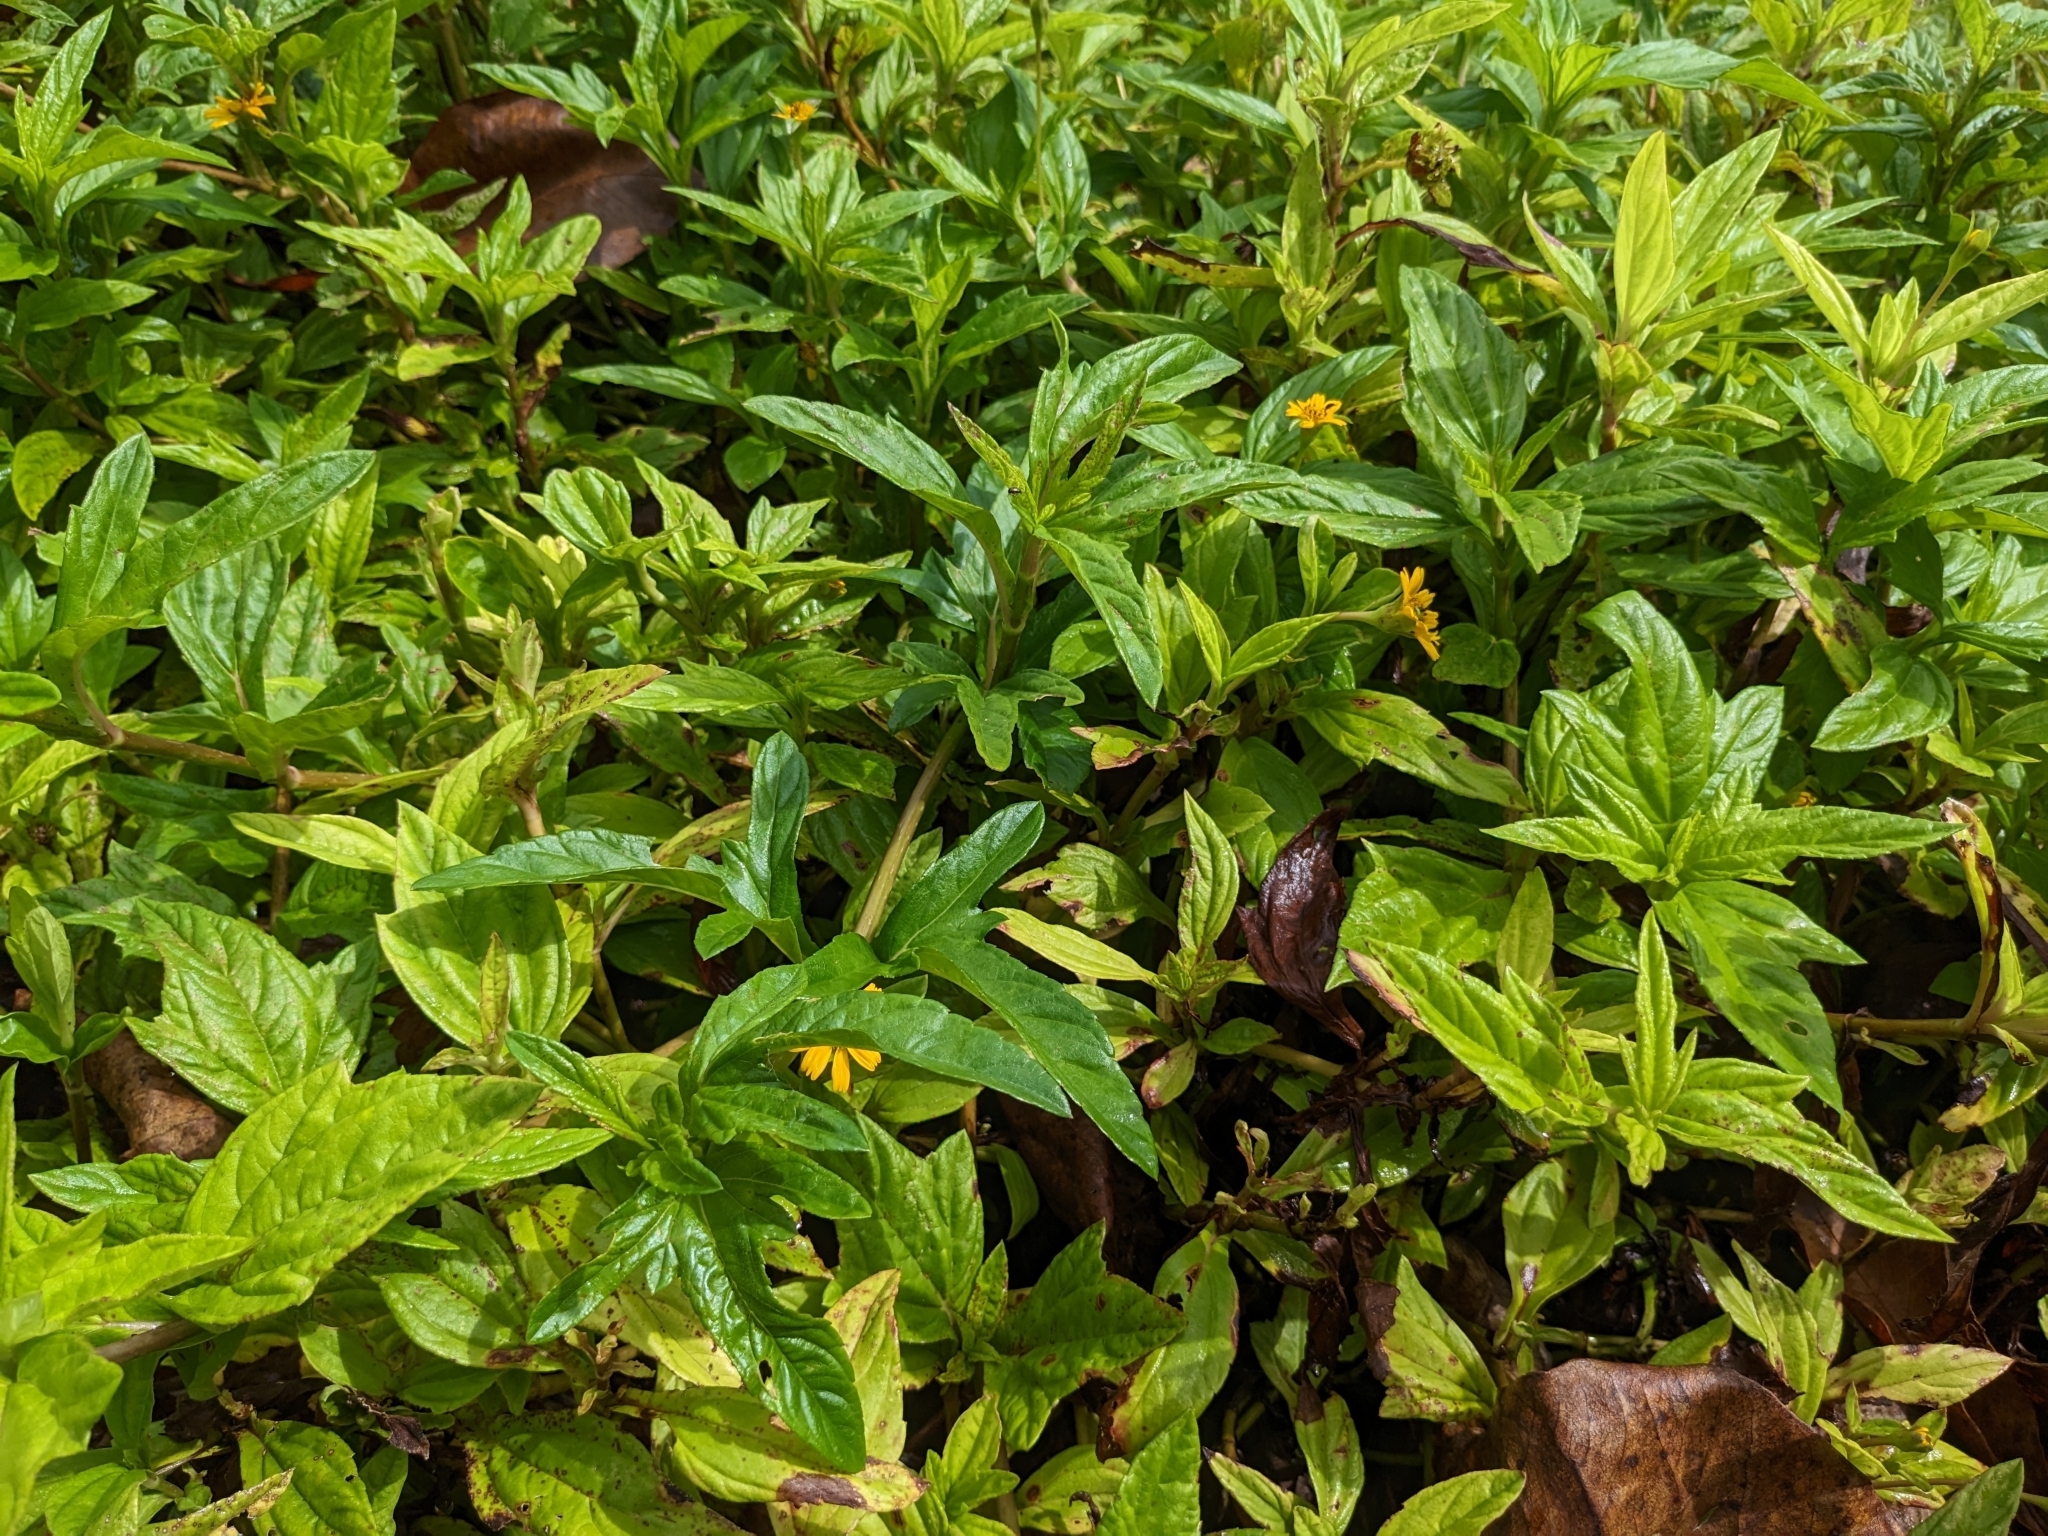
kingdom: Plantae
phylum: Tracheophyta
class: Magnoliopsida
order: Asterales
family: Asteraceae
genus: Sphagneticola
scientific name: Sphagneticola trilobata
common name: Bay biscayne creeping-oxeye
